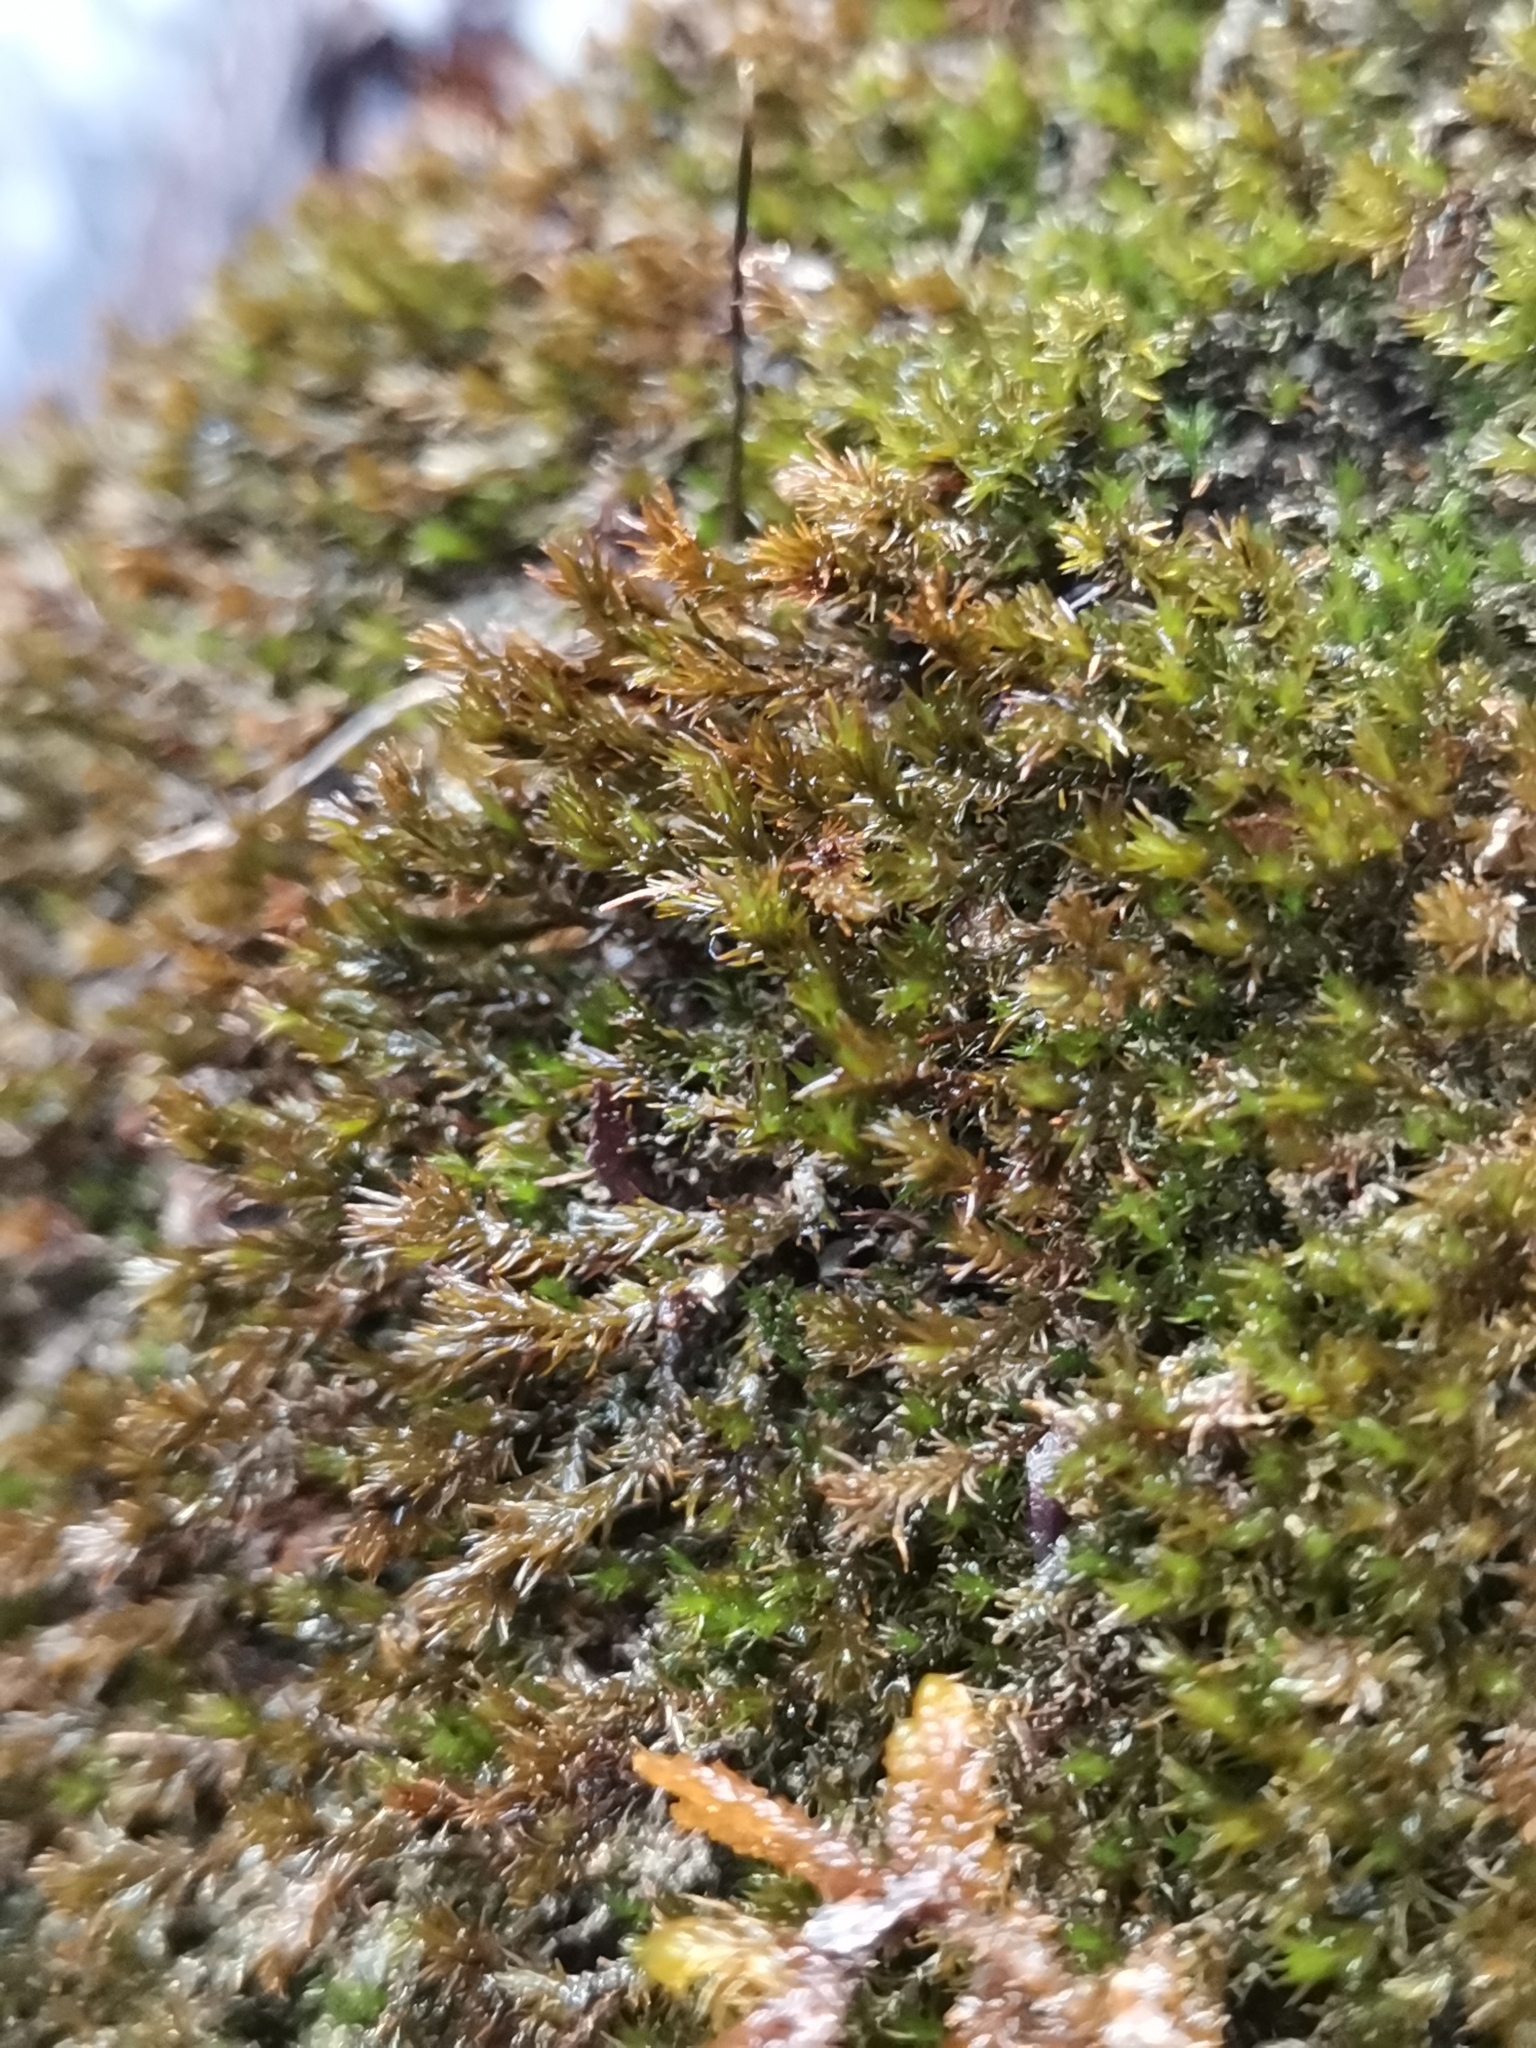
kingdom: Plantae
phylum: Bryophyta
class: Bryopsida
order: Pottiales
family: Pottiaceae
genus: Eucladium
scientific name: Eucladium verticillatum
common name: Whorled tufa-moss
